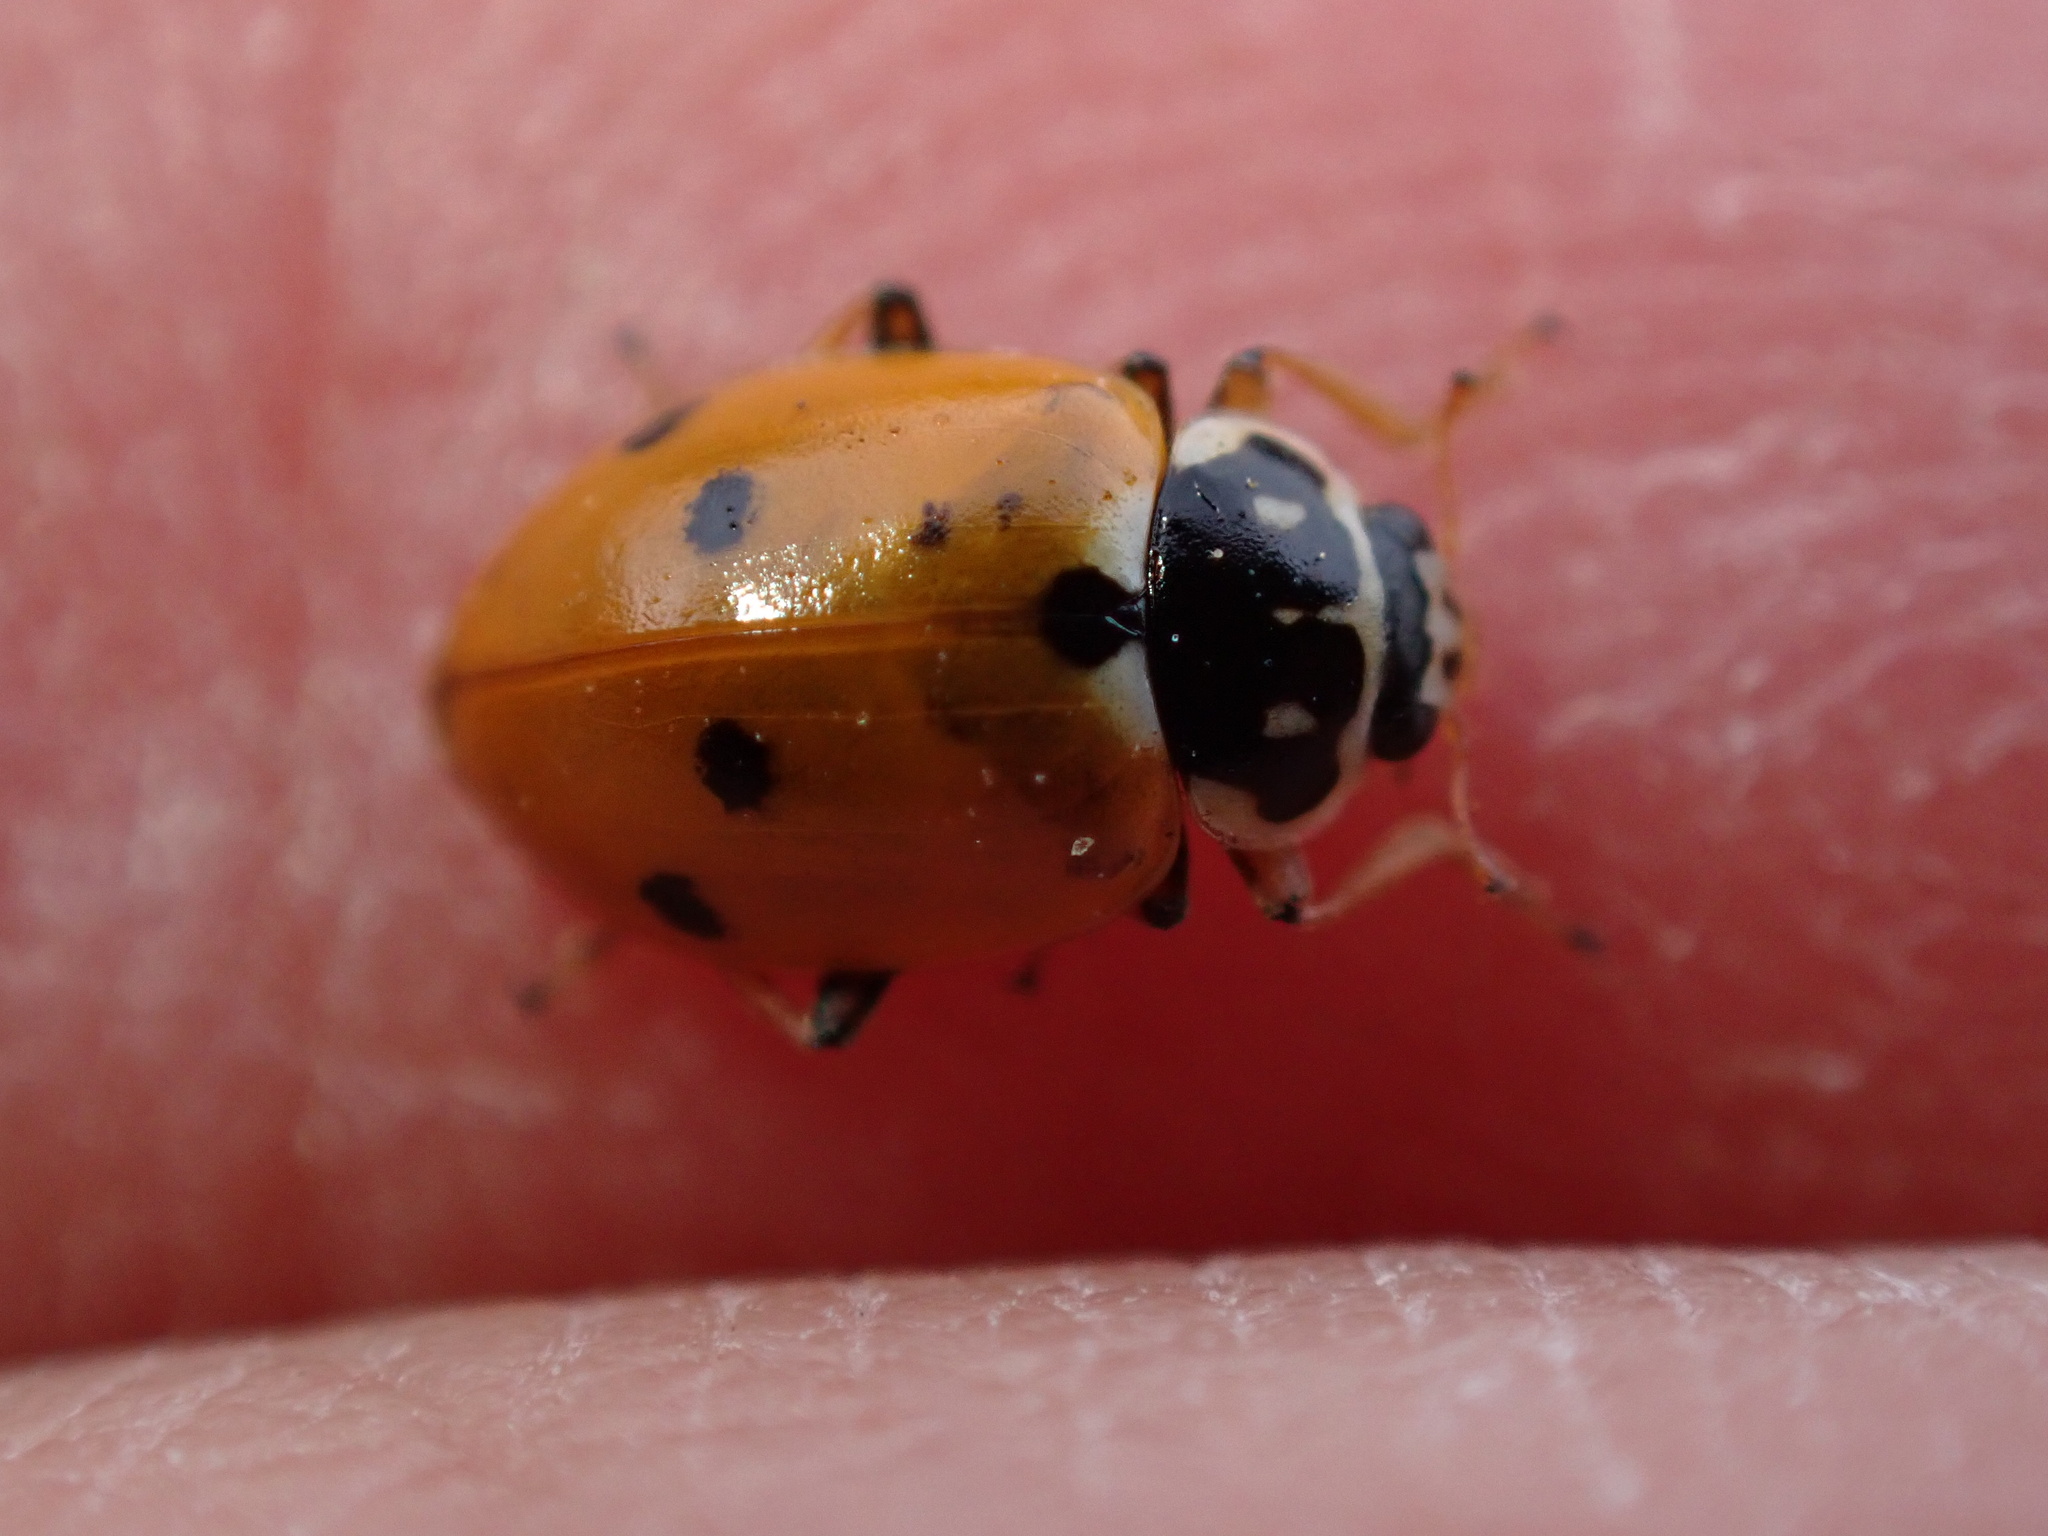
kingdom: Animalia
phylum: Arthropoda
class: Insecta
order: Coleoptera
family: Coccinellidae
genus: Hippodamia
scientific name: Hippodamia variegata
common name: Ladybird beetle
